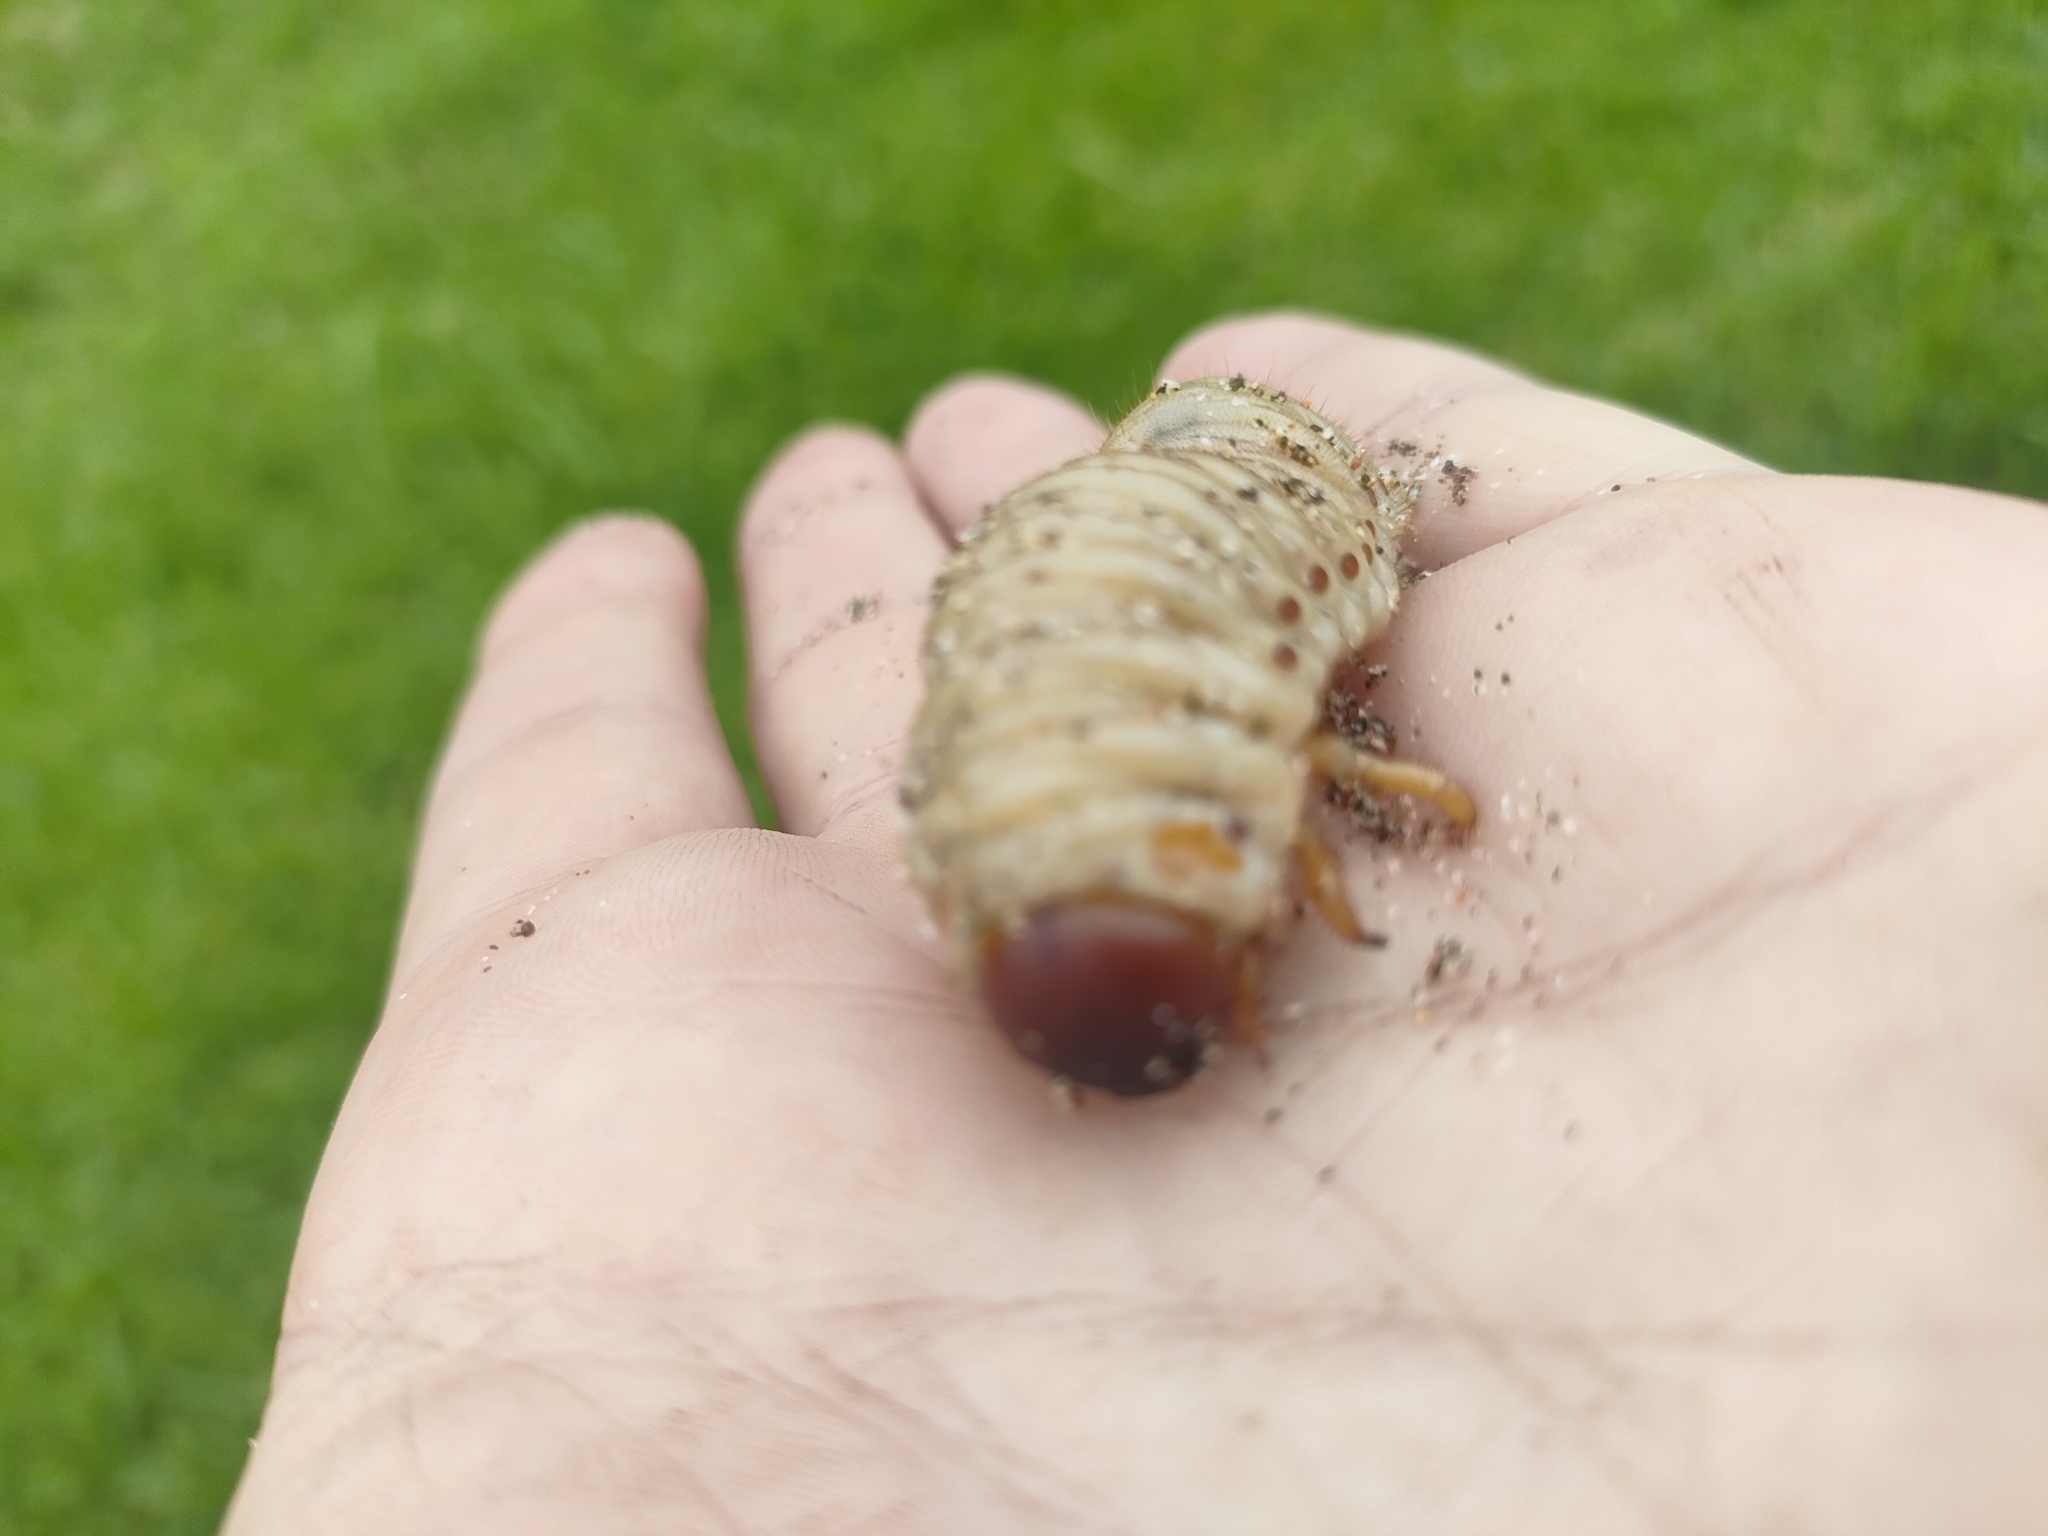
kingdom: Animalia
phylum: Arthropoda
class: Insecta
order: Coleoptera
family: Scarabaeidae
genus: Pericoptus
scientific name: Pericoptus truncatus
